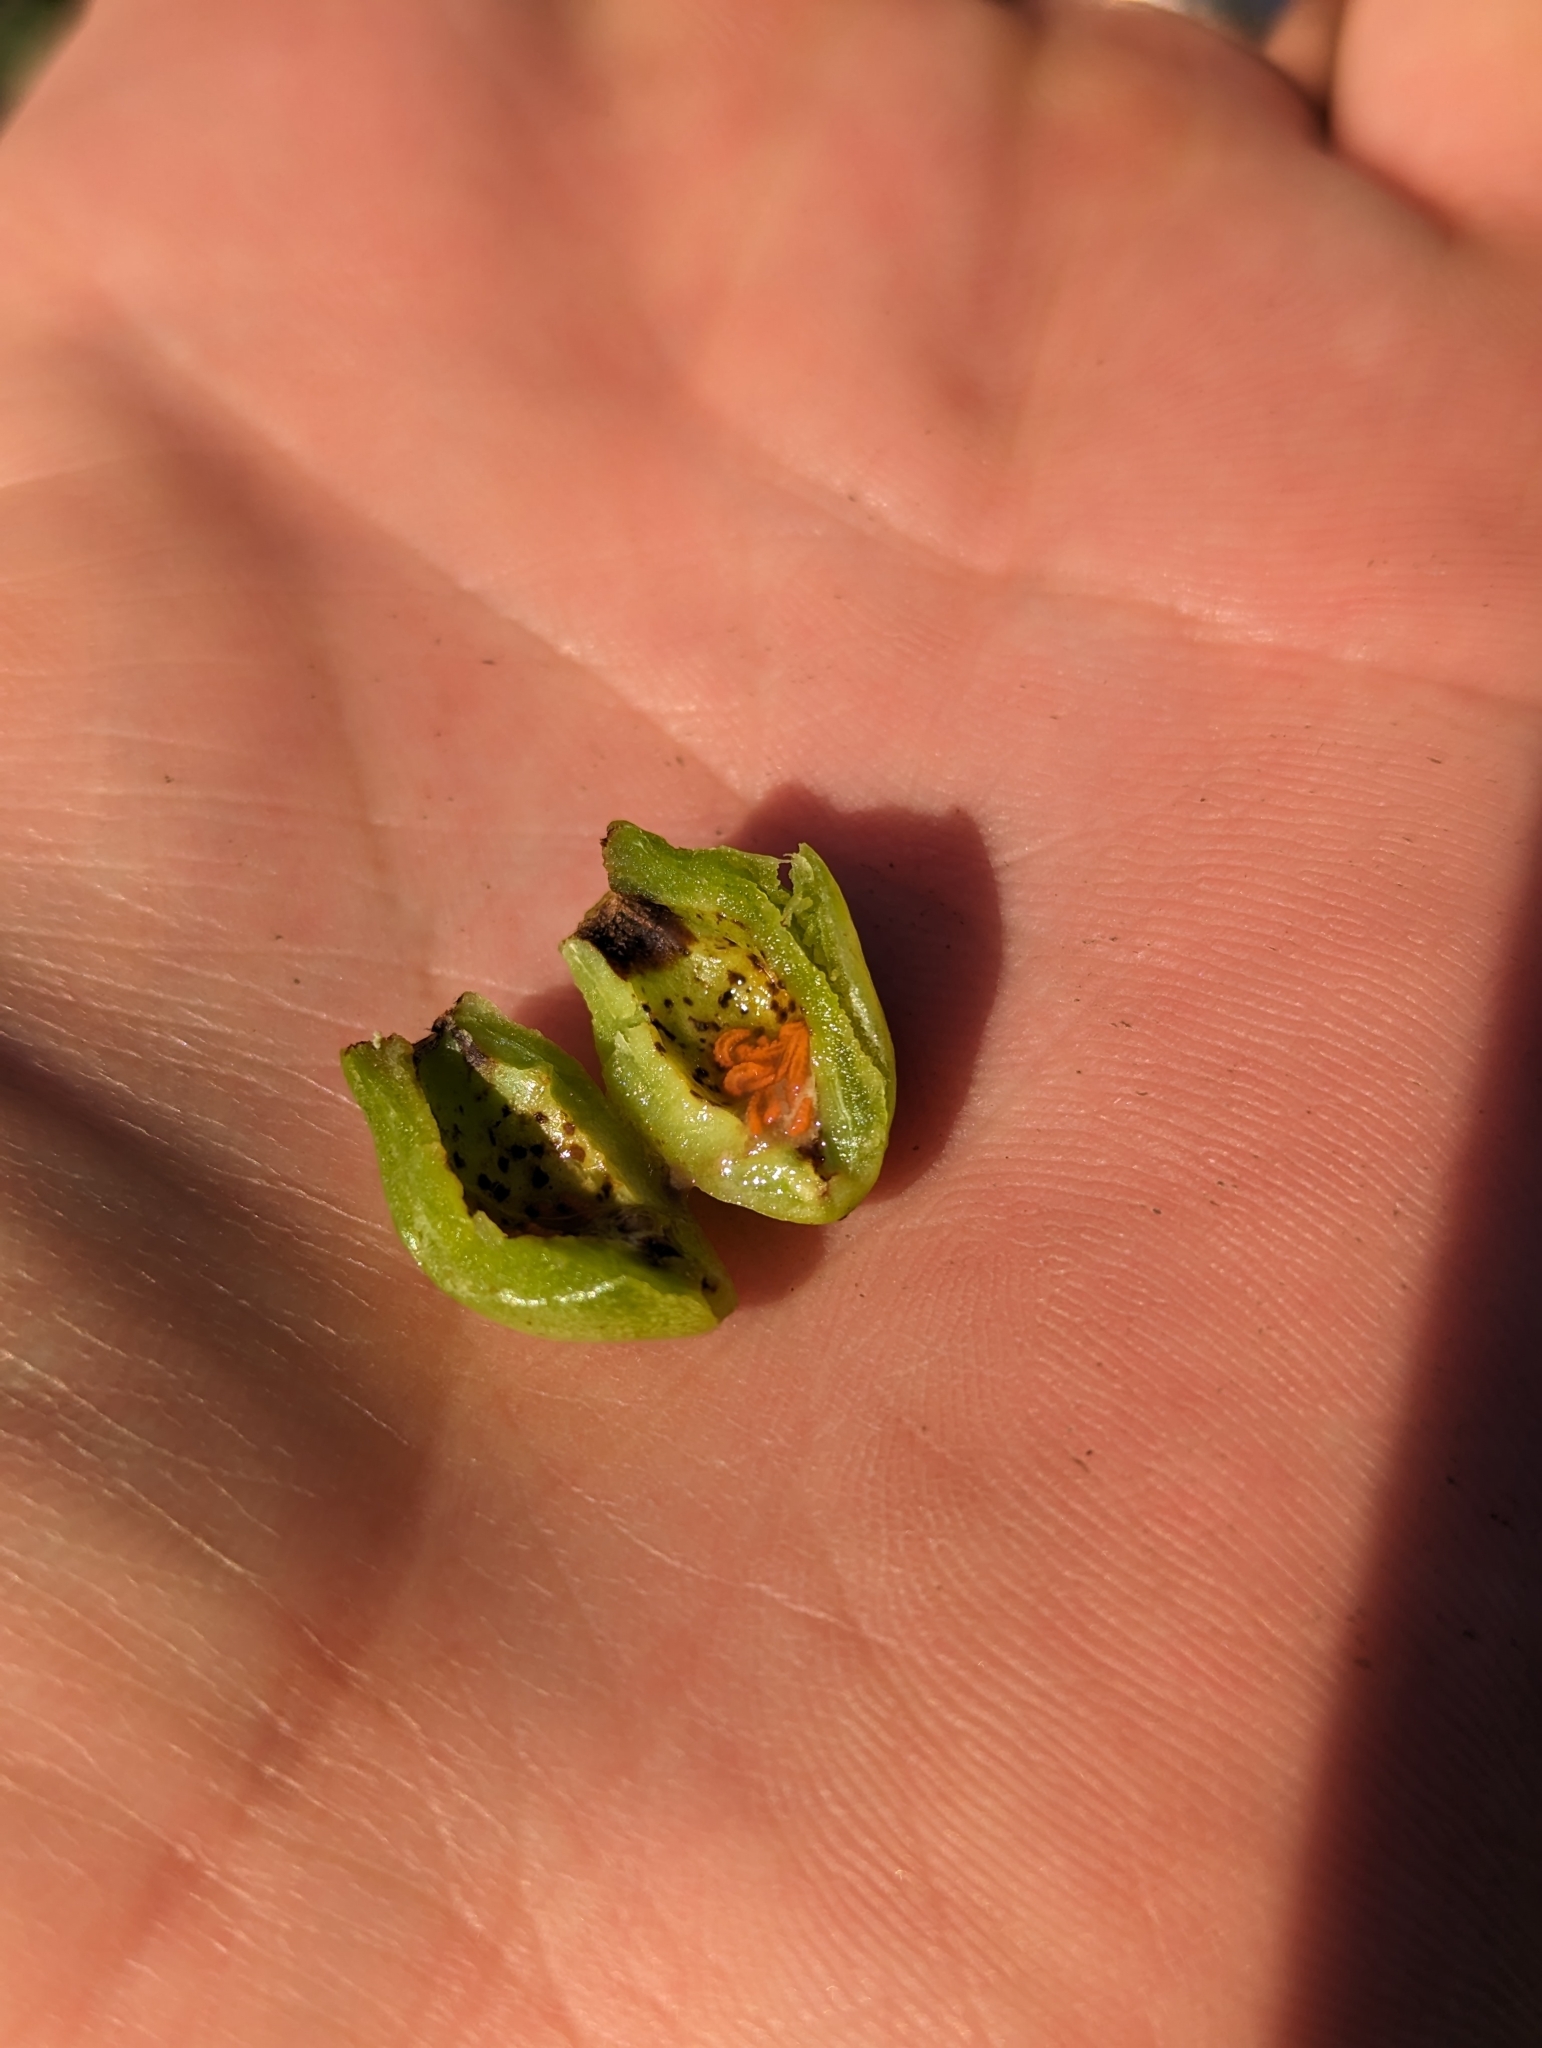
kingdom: Animalia
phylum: Arthropoda
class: Insecta
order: Diptera
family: Cecidomyiidae
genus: Contarinia
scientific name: Contarinia virginianiae
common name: Chokecherry midge
